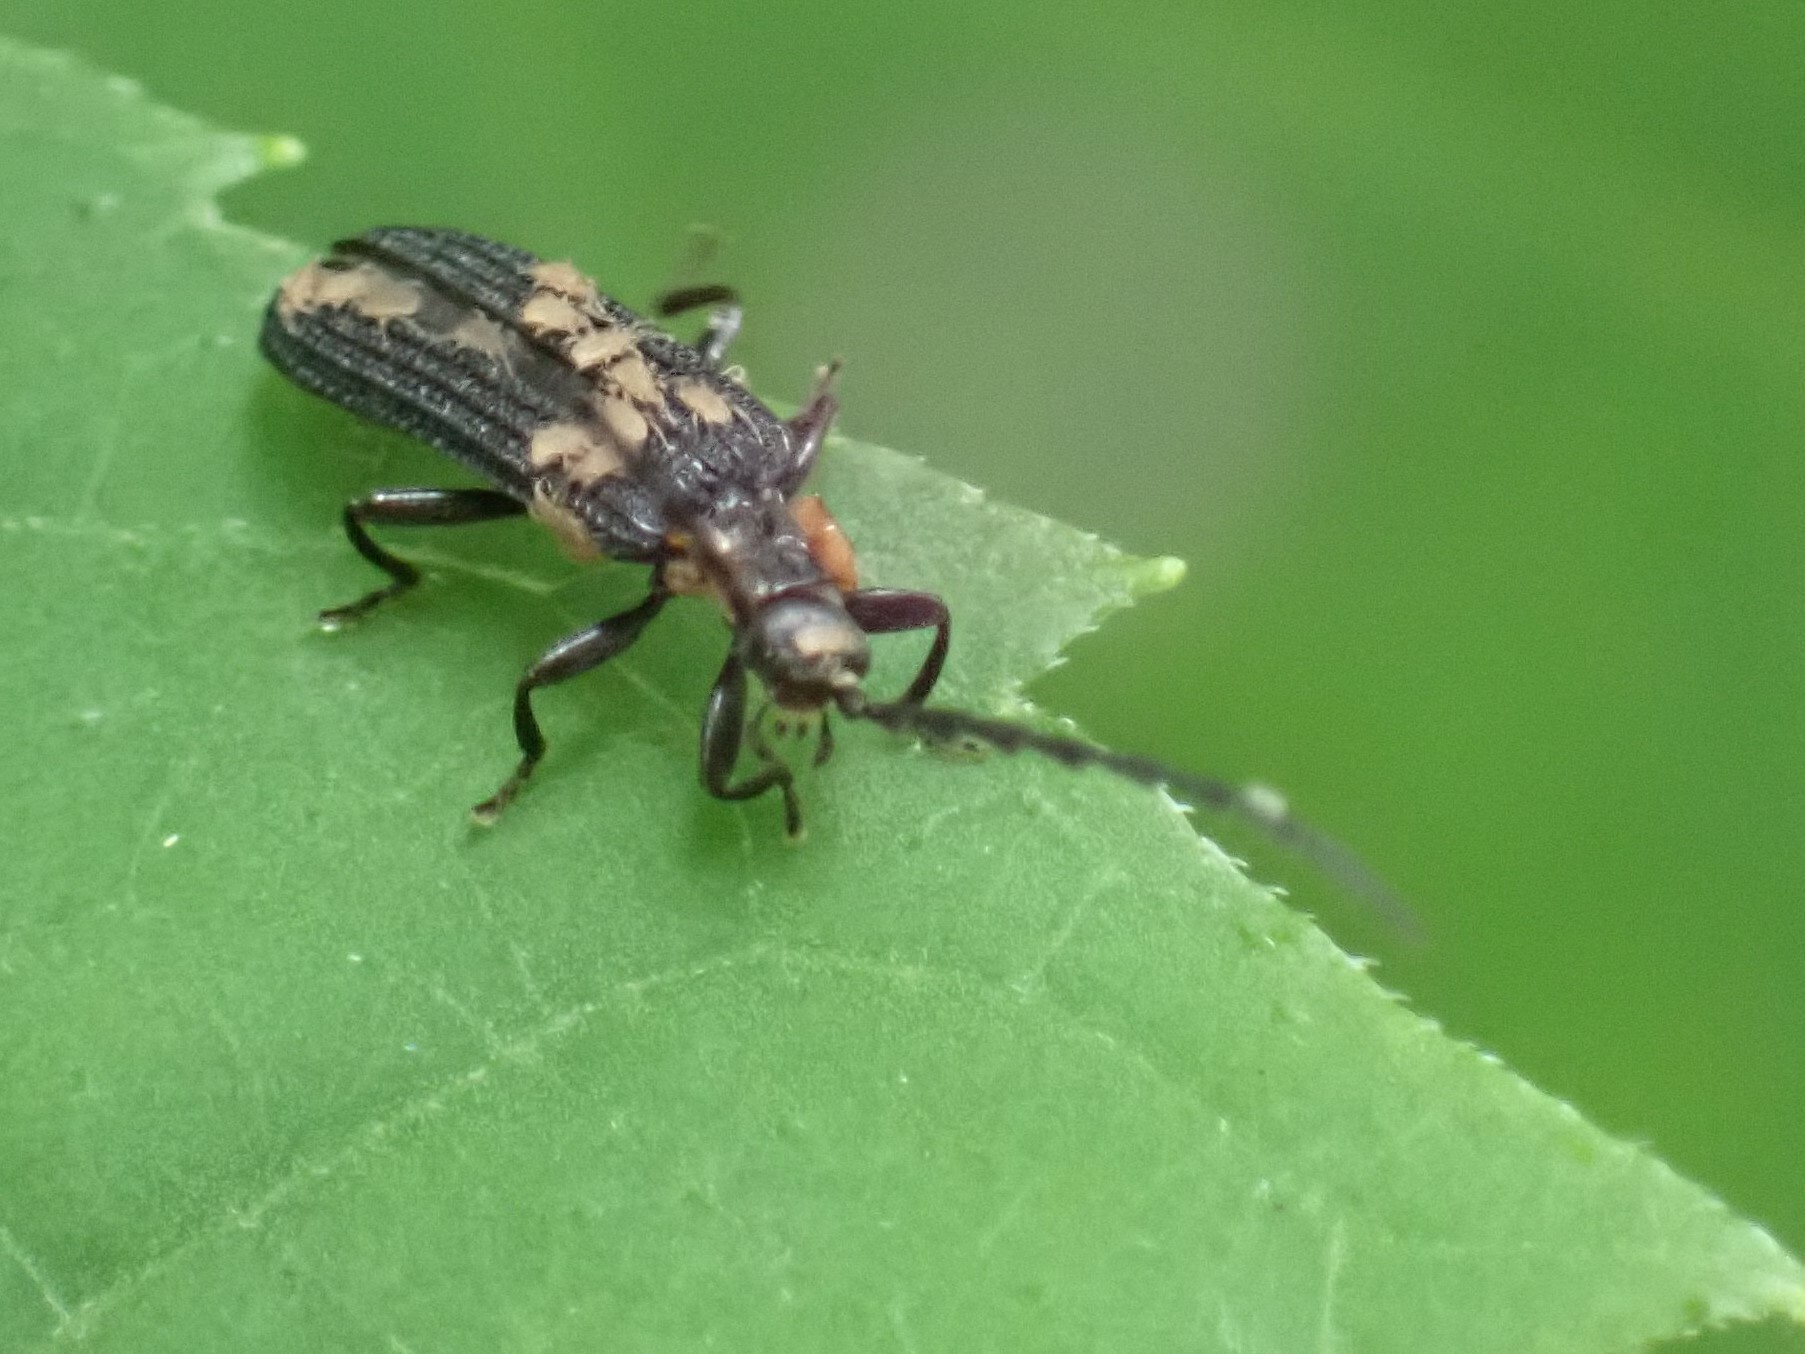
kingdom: Animalia
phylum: Arthropoda
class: Insecta
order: Coleoptera
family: Lycidae
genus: Erotides
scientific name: Erotides sculptilis
